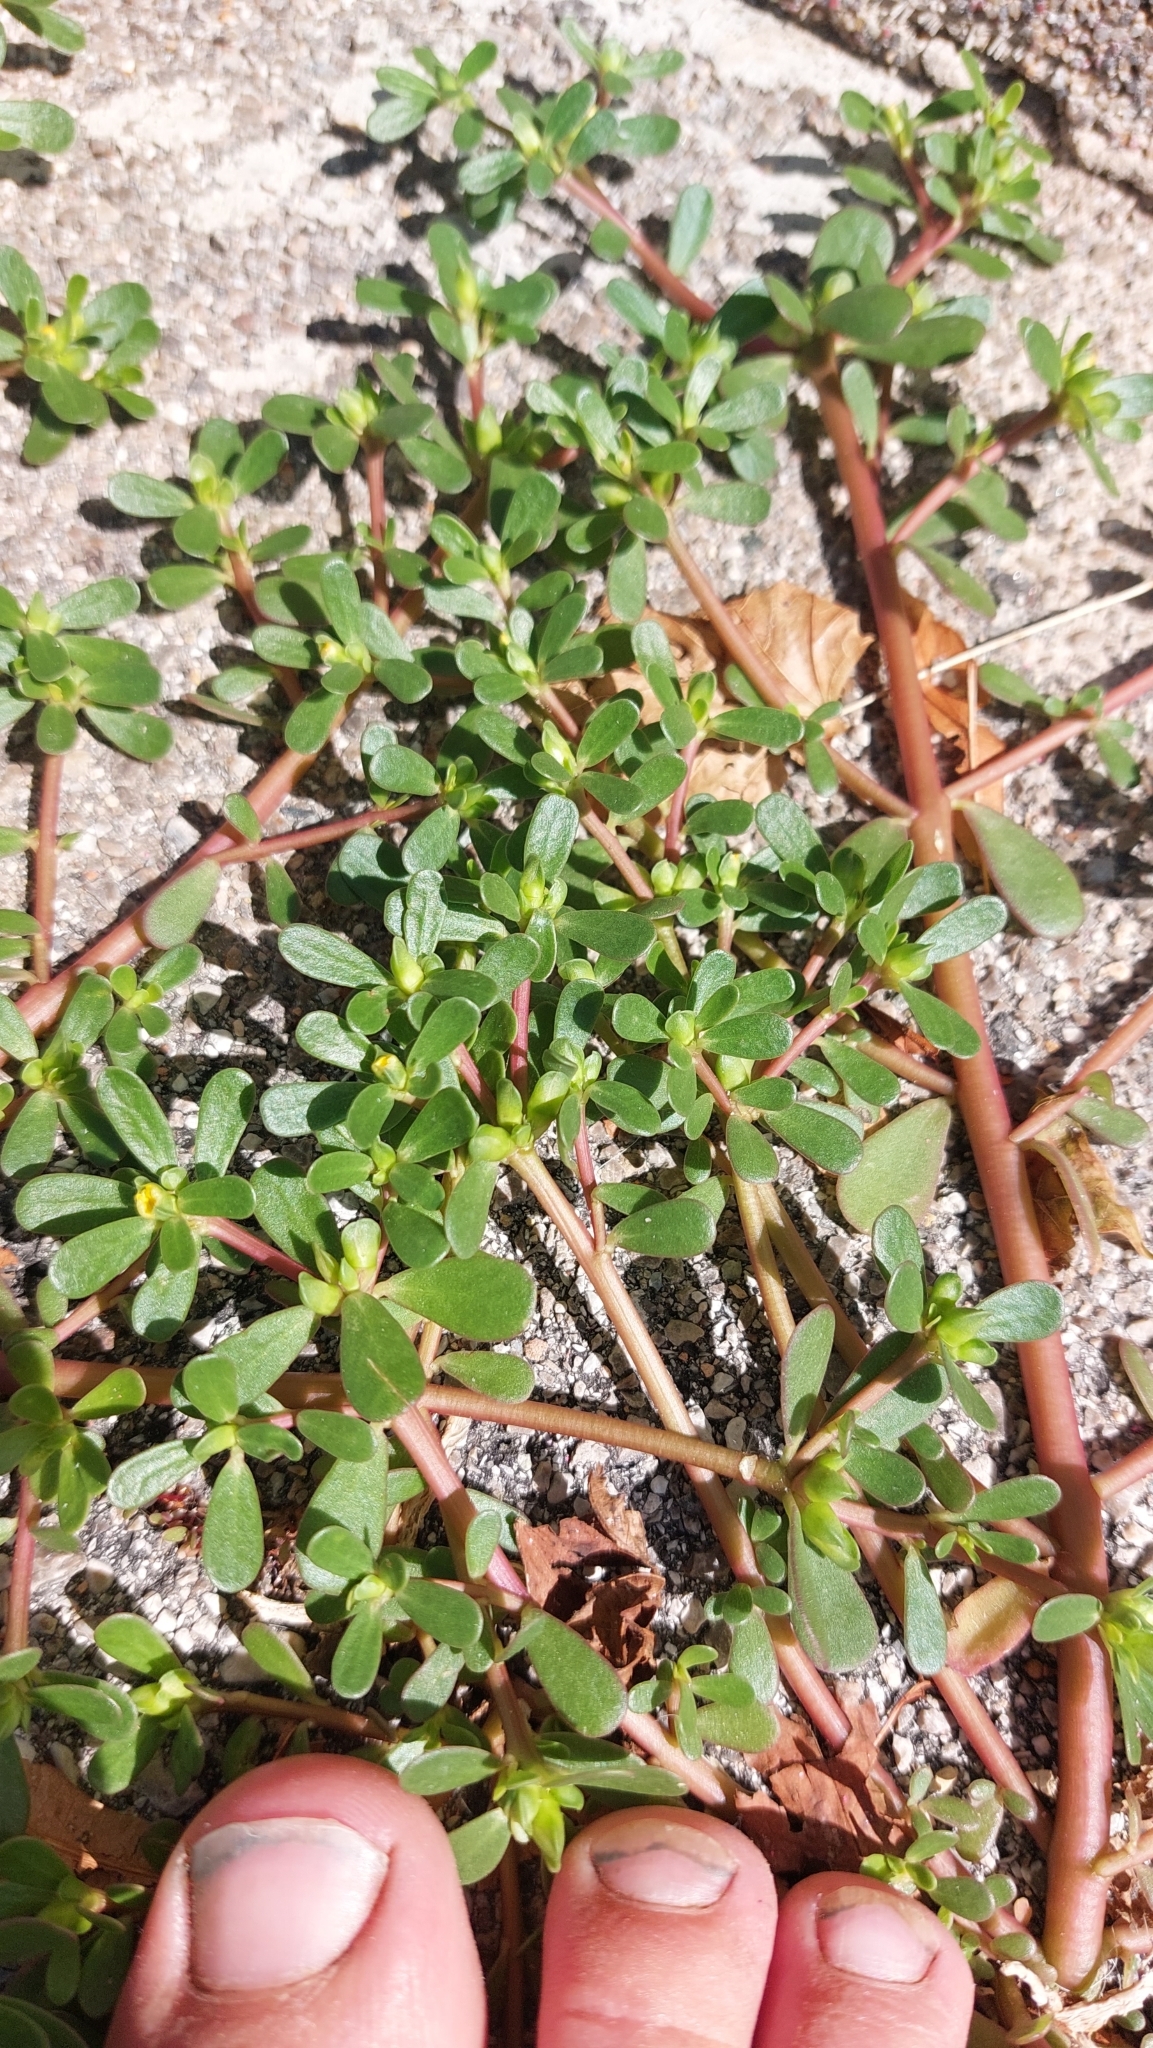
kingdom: Plantae
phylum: Tracheophyta
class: Magnoliopsida
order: Caryophyllales
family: Portulacaceae
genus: Portulaca
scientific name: Portulaca oleracea
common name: Common purslane
